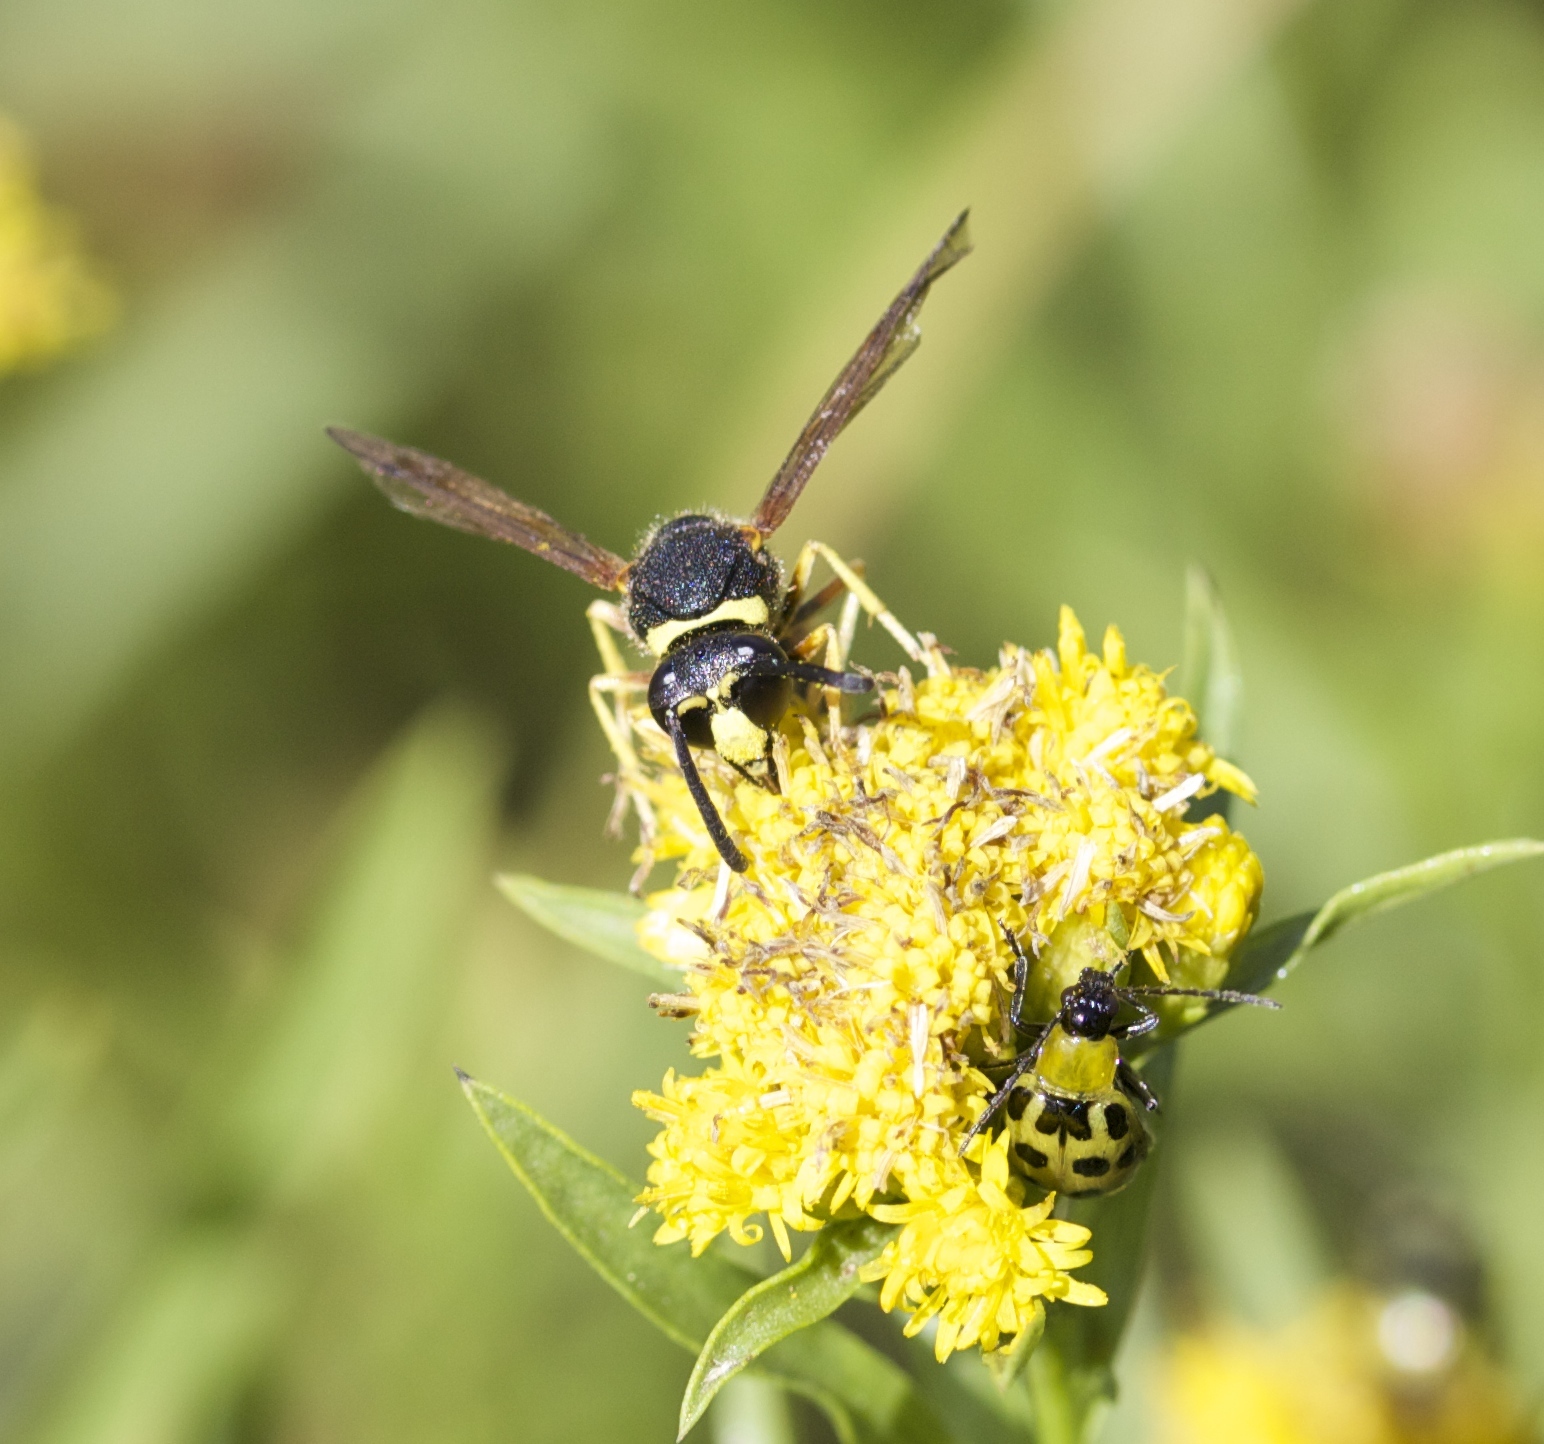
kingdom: Animalia
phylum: Arthropoda
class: Insecta
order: Hymenoptera
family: Vespidae
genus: Eumenes
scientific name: Eumenes crucifera
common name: Cross potter wasp
